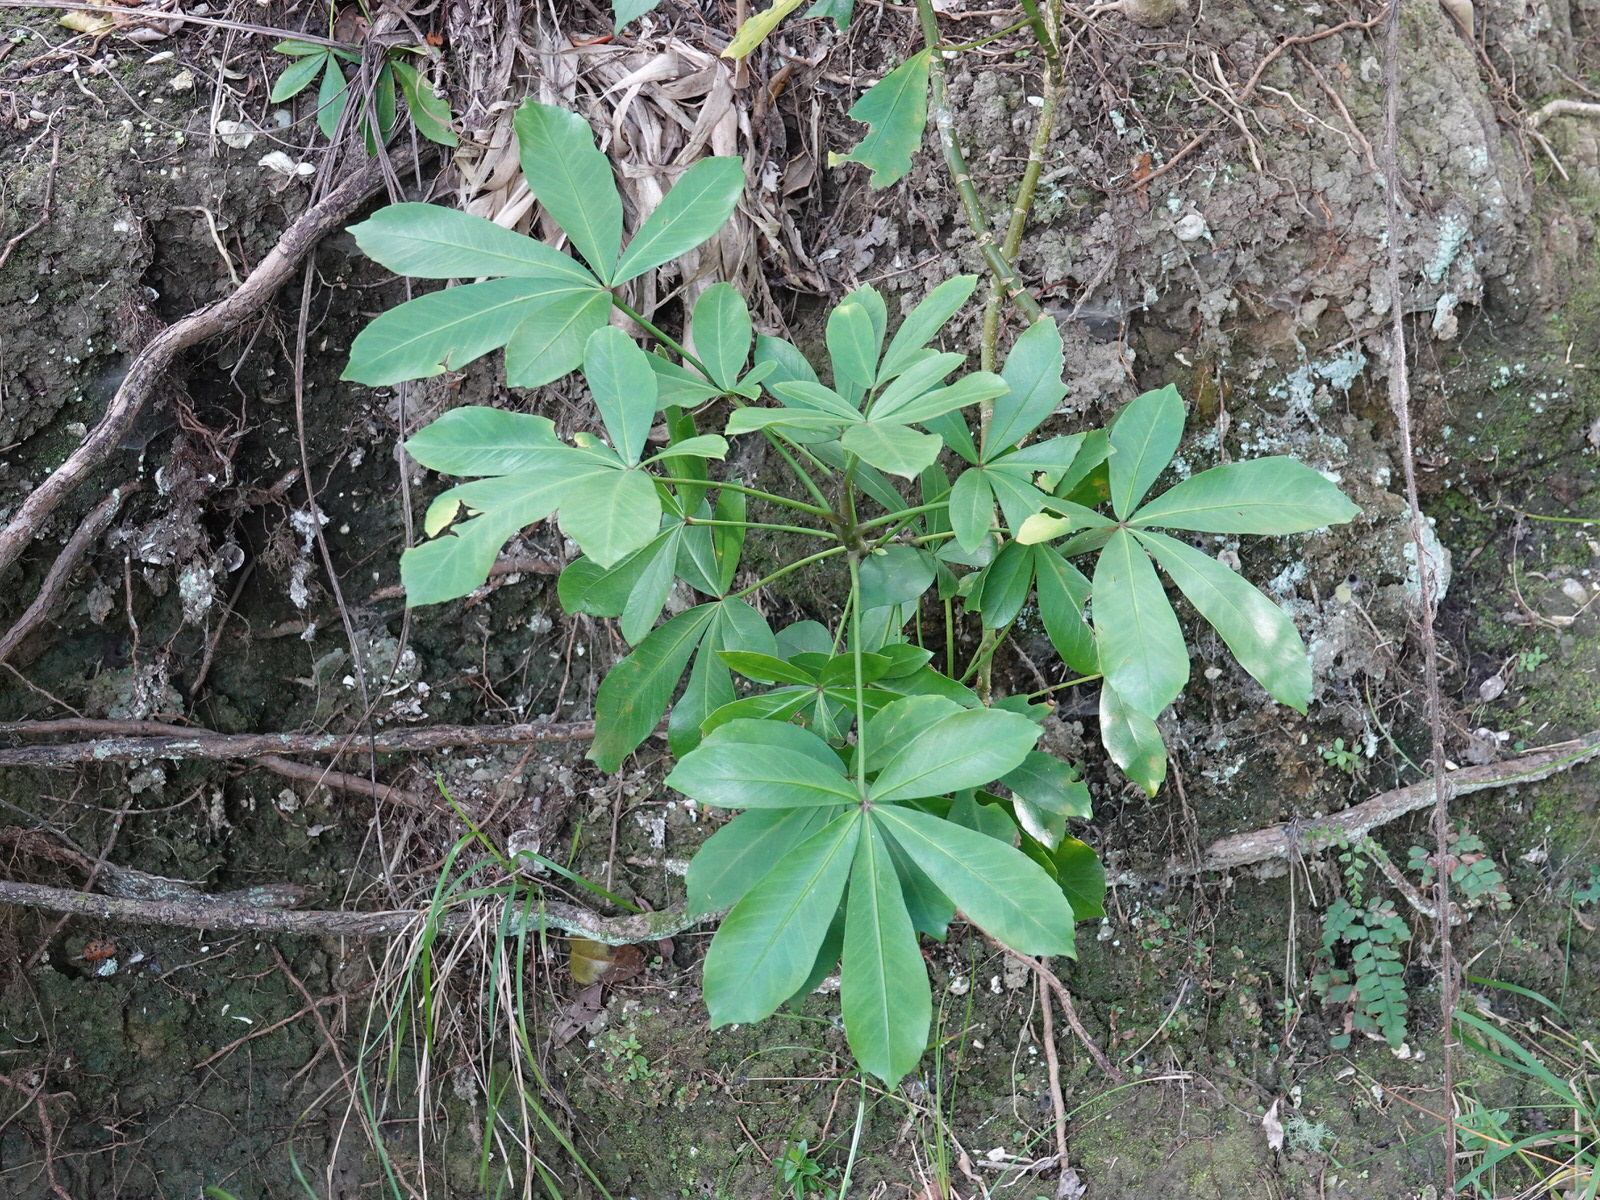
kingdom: Plantae
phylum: Tracheophyta
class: Magnoliopsida
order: Apiales
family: Araliaceae
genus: Pseudopanax
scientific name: Pseudopanax lessonii
